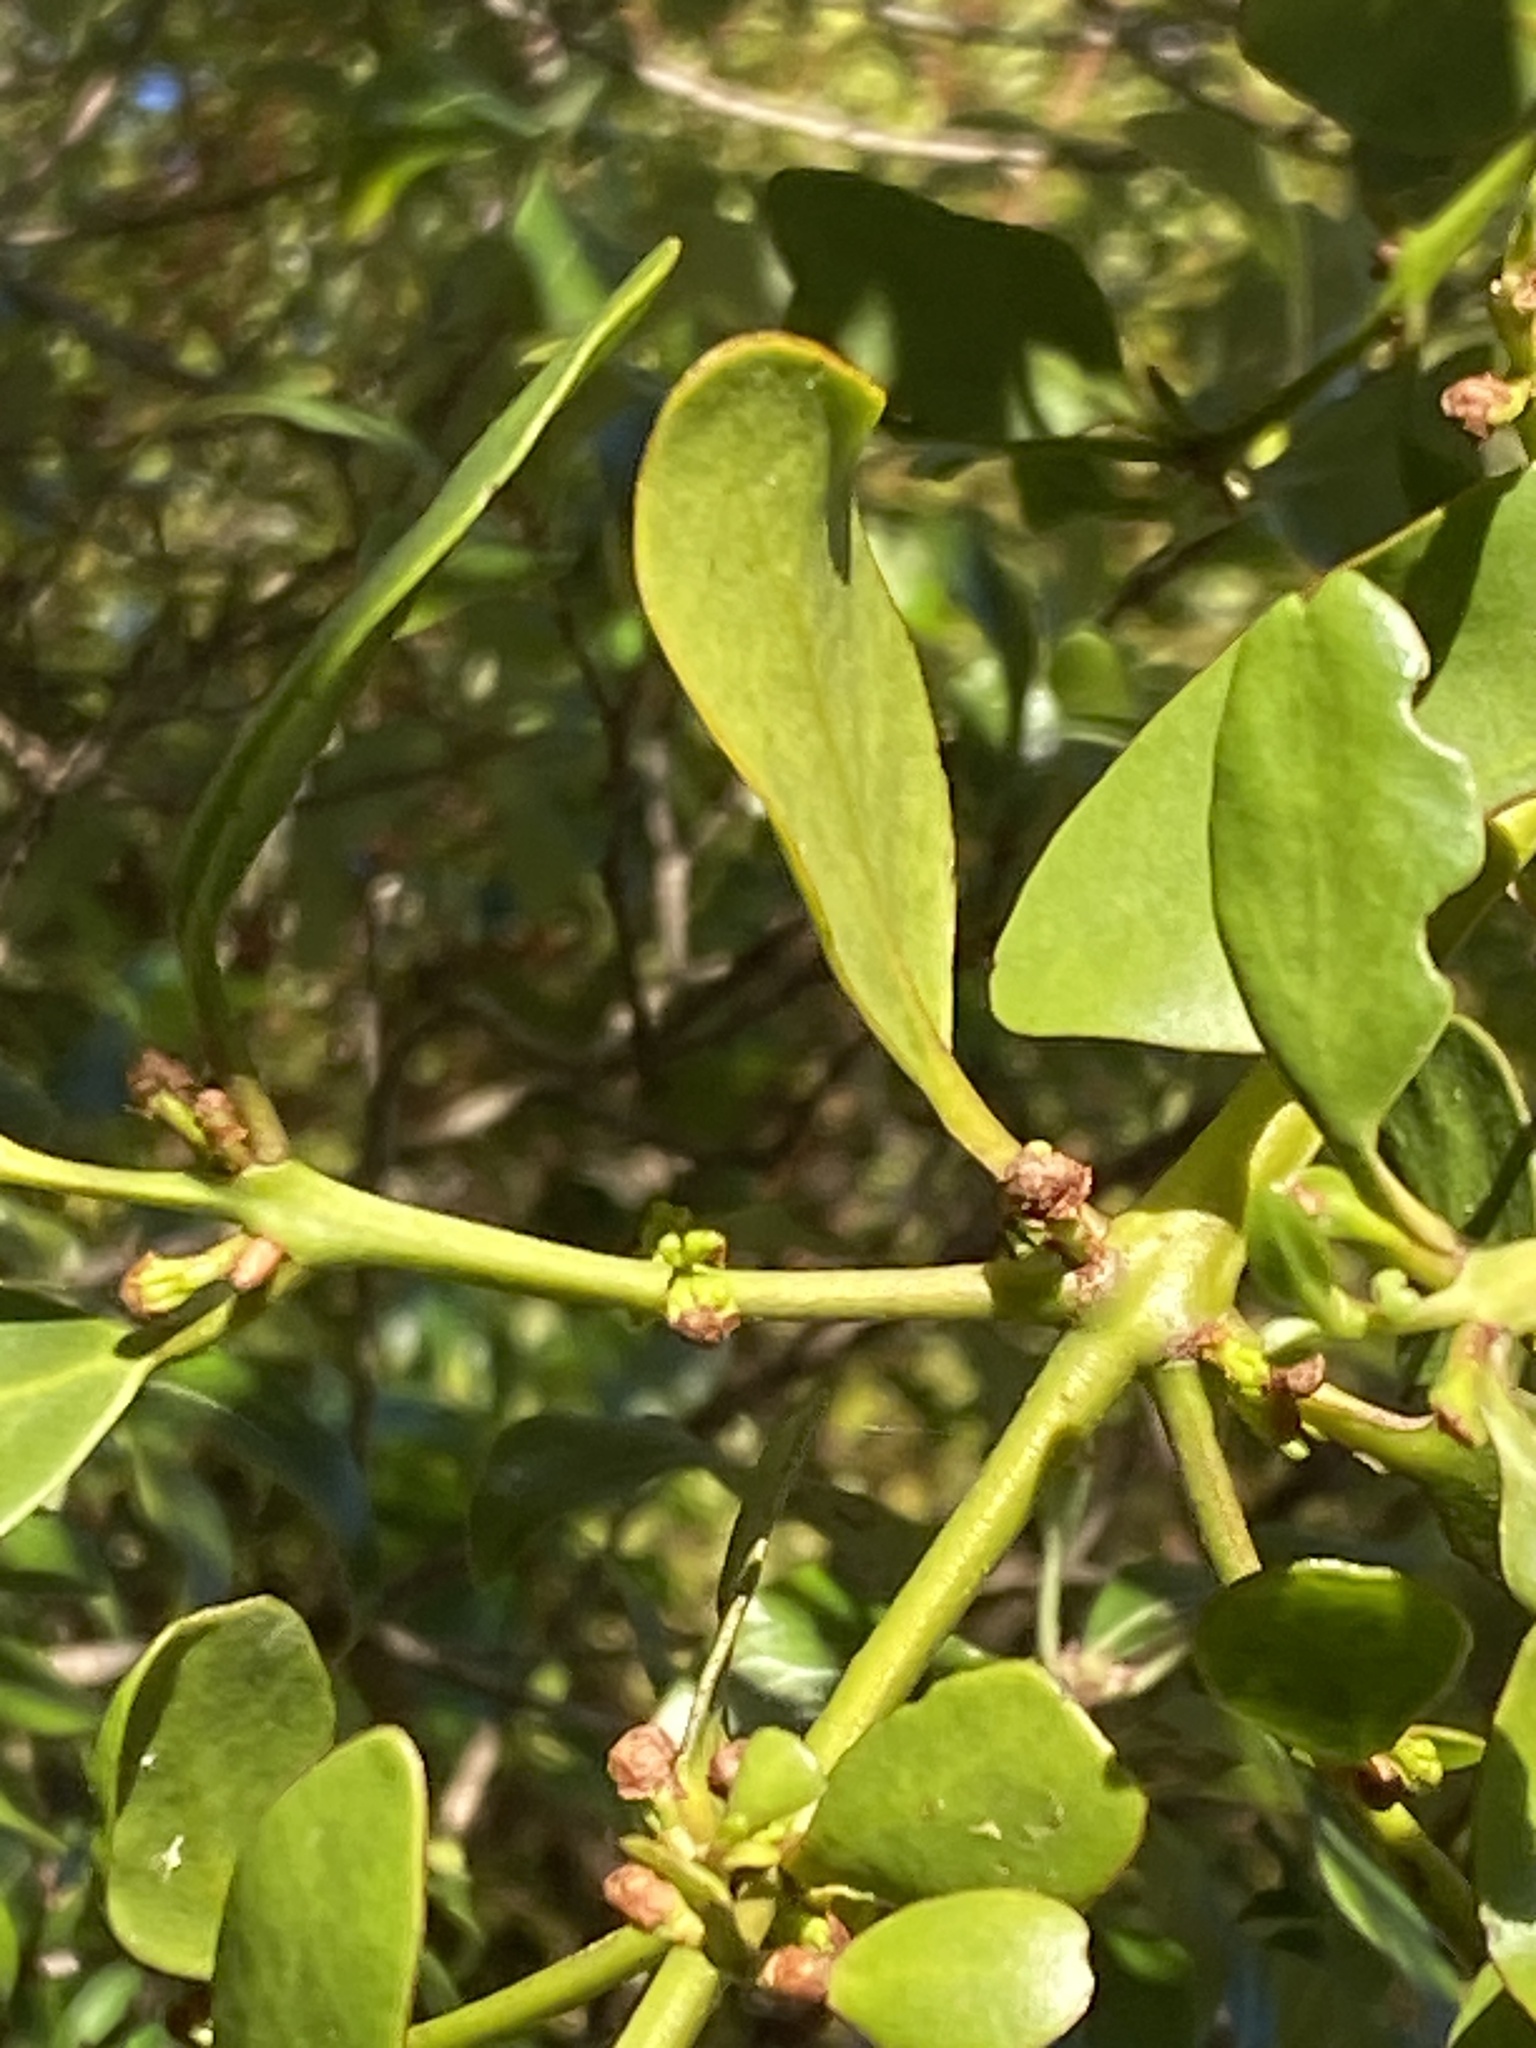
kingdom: Plantae
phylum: Tracheophyta
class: Magnoliopsida
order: Santalales
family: Loranthaceae
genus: Ileostylus
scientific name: Ileostylus micranthus
